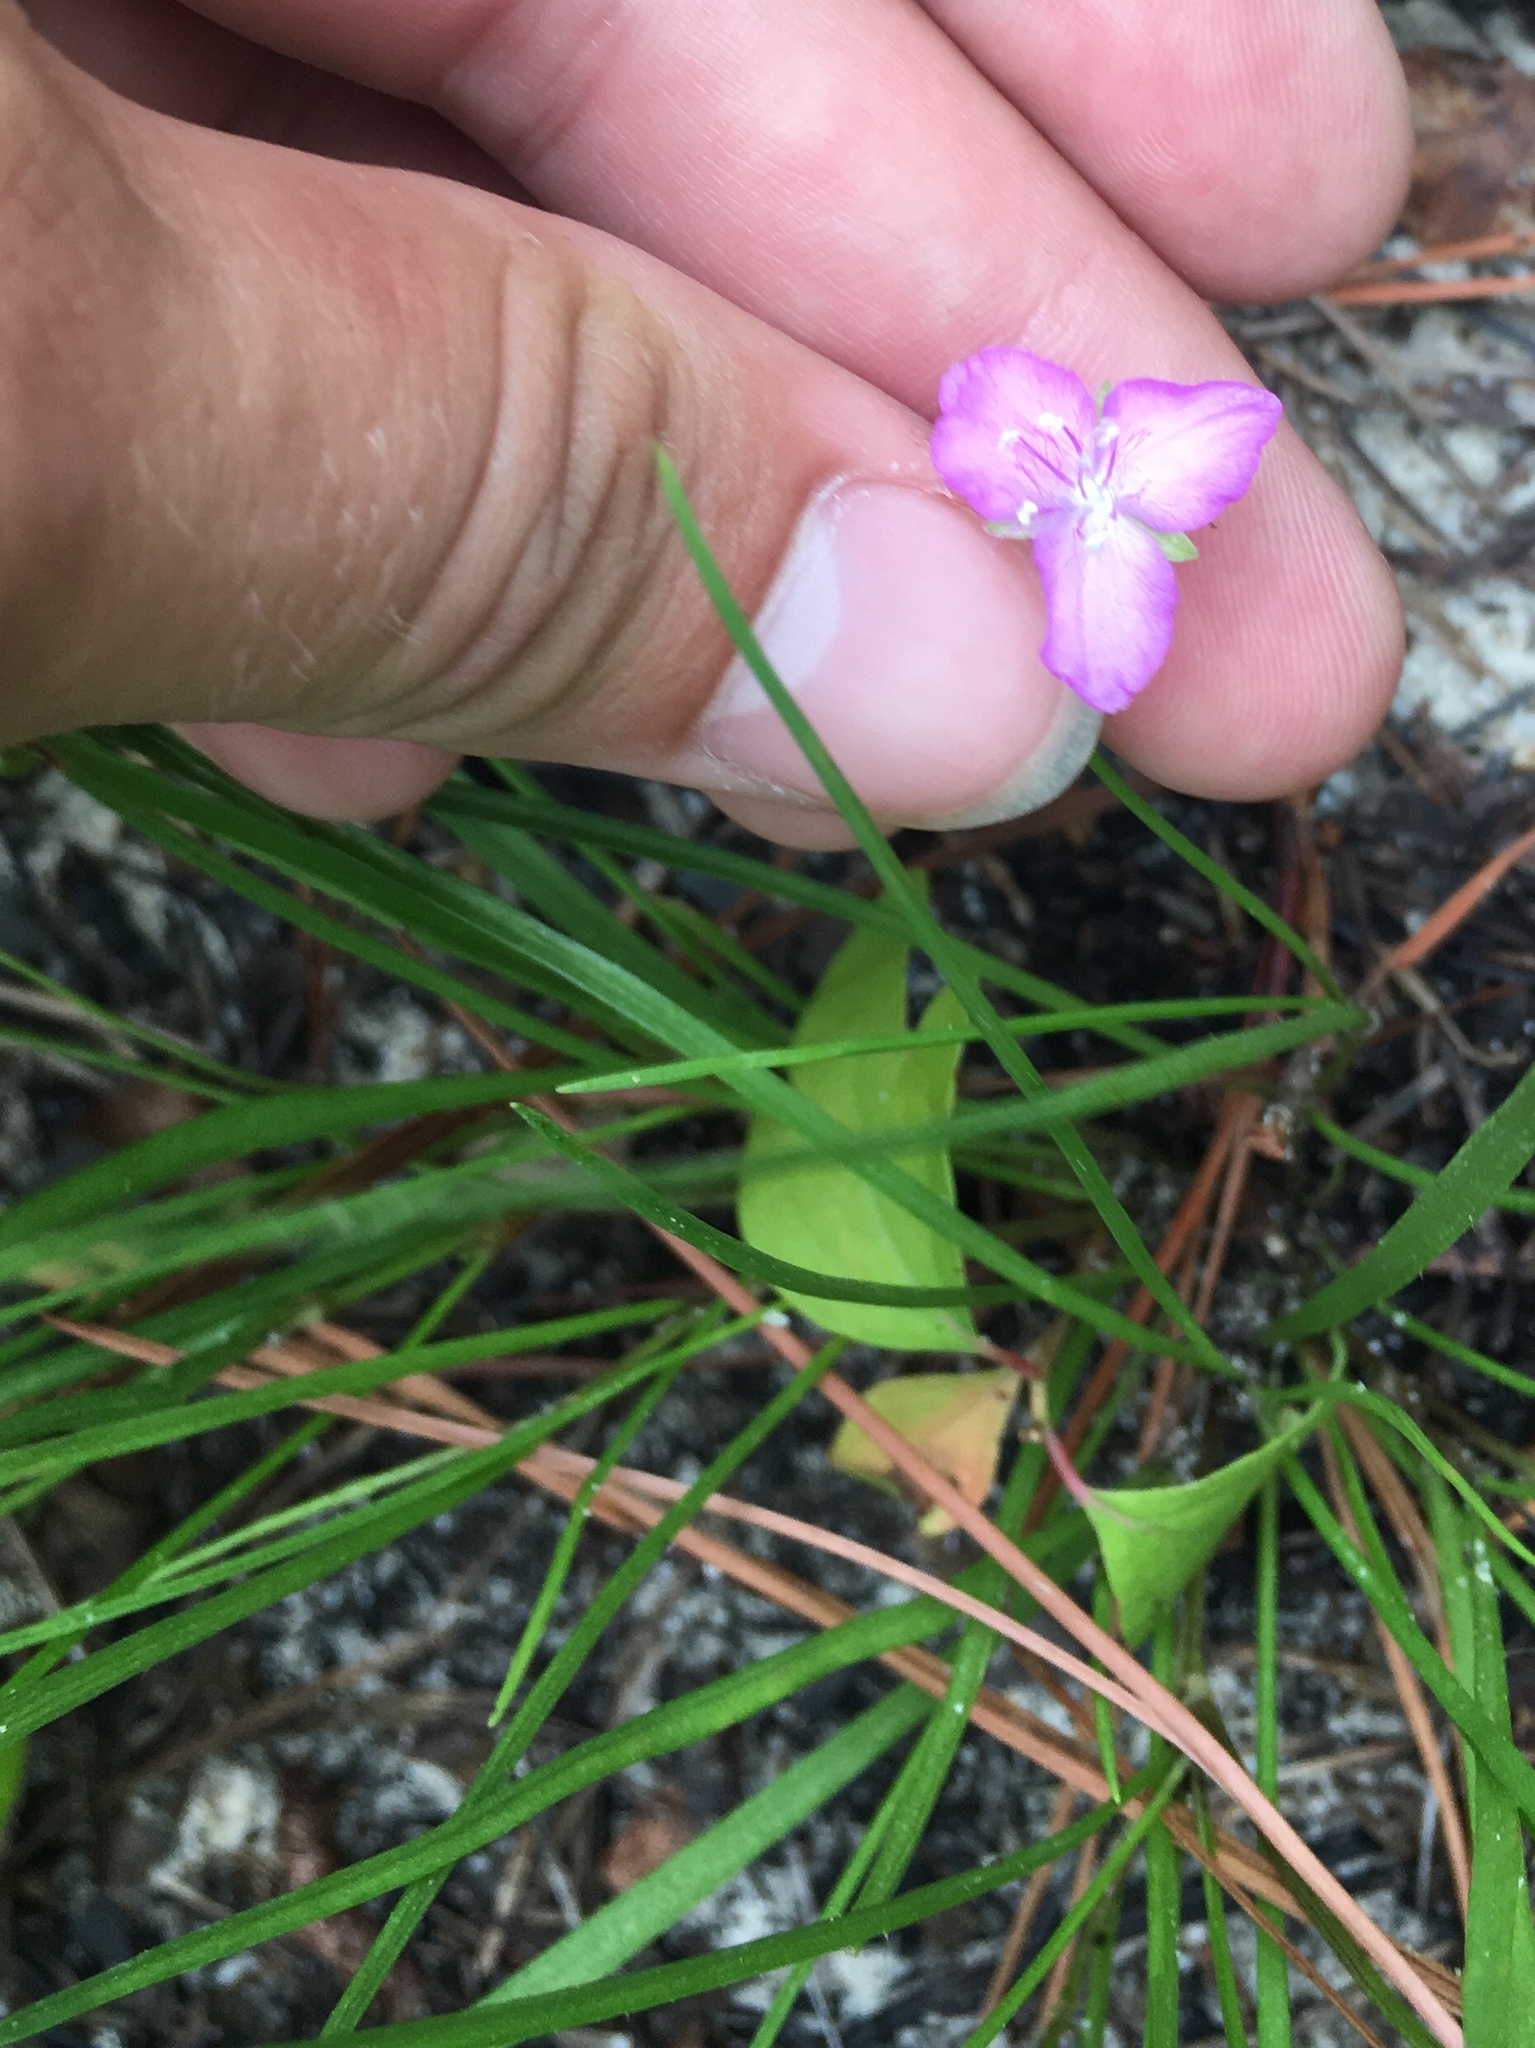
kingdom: Plantae
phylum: Tracheophyta
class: Liliopsida
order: Commelinales
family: Commelinaceae
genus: Callisia
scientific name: Callisia graminea
